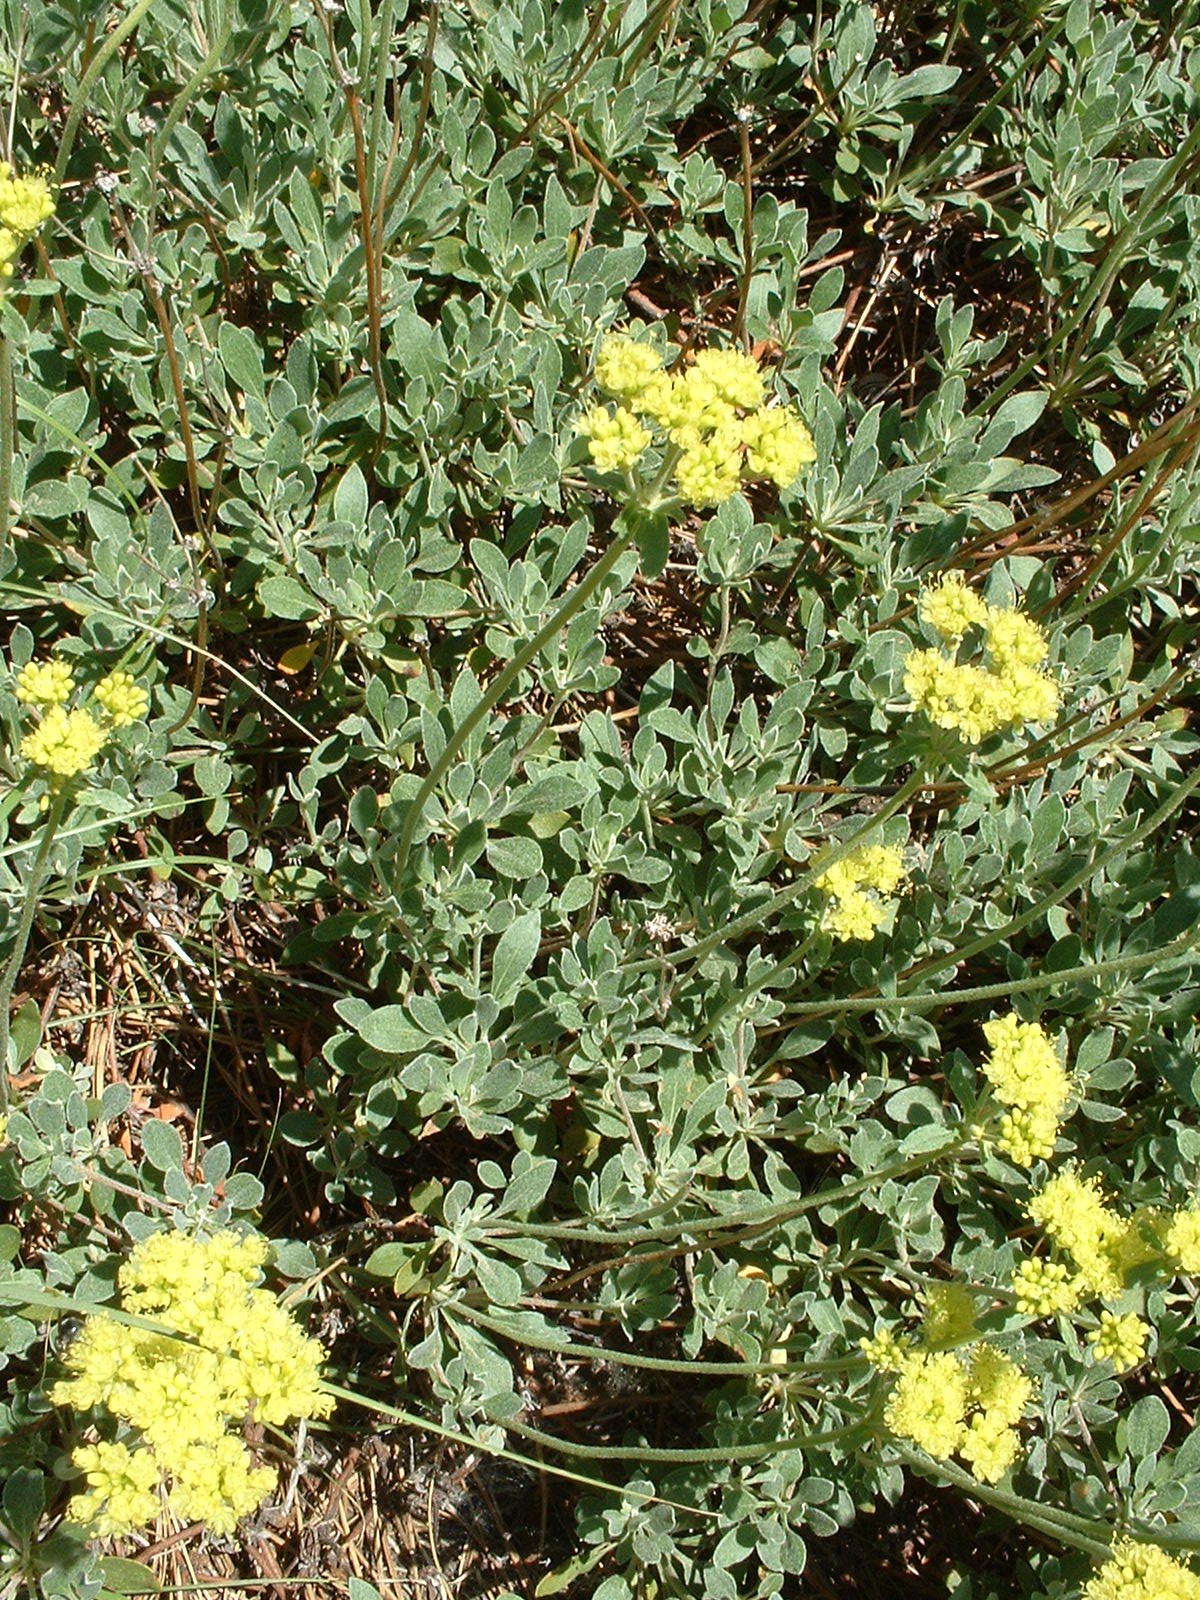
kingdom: Plantae
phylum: Tracheophyta
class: Magnoliopsida
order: Caryophyllales
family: Polygonaceae
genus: Eriogonum
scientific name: Eriogonum umbellatum
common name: Sulfur-buckwheat
